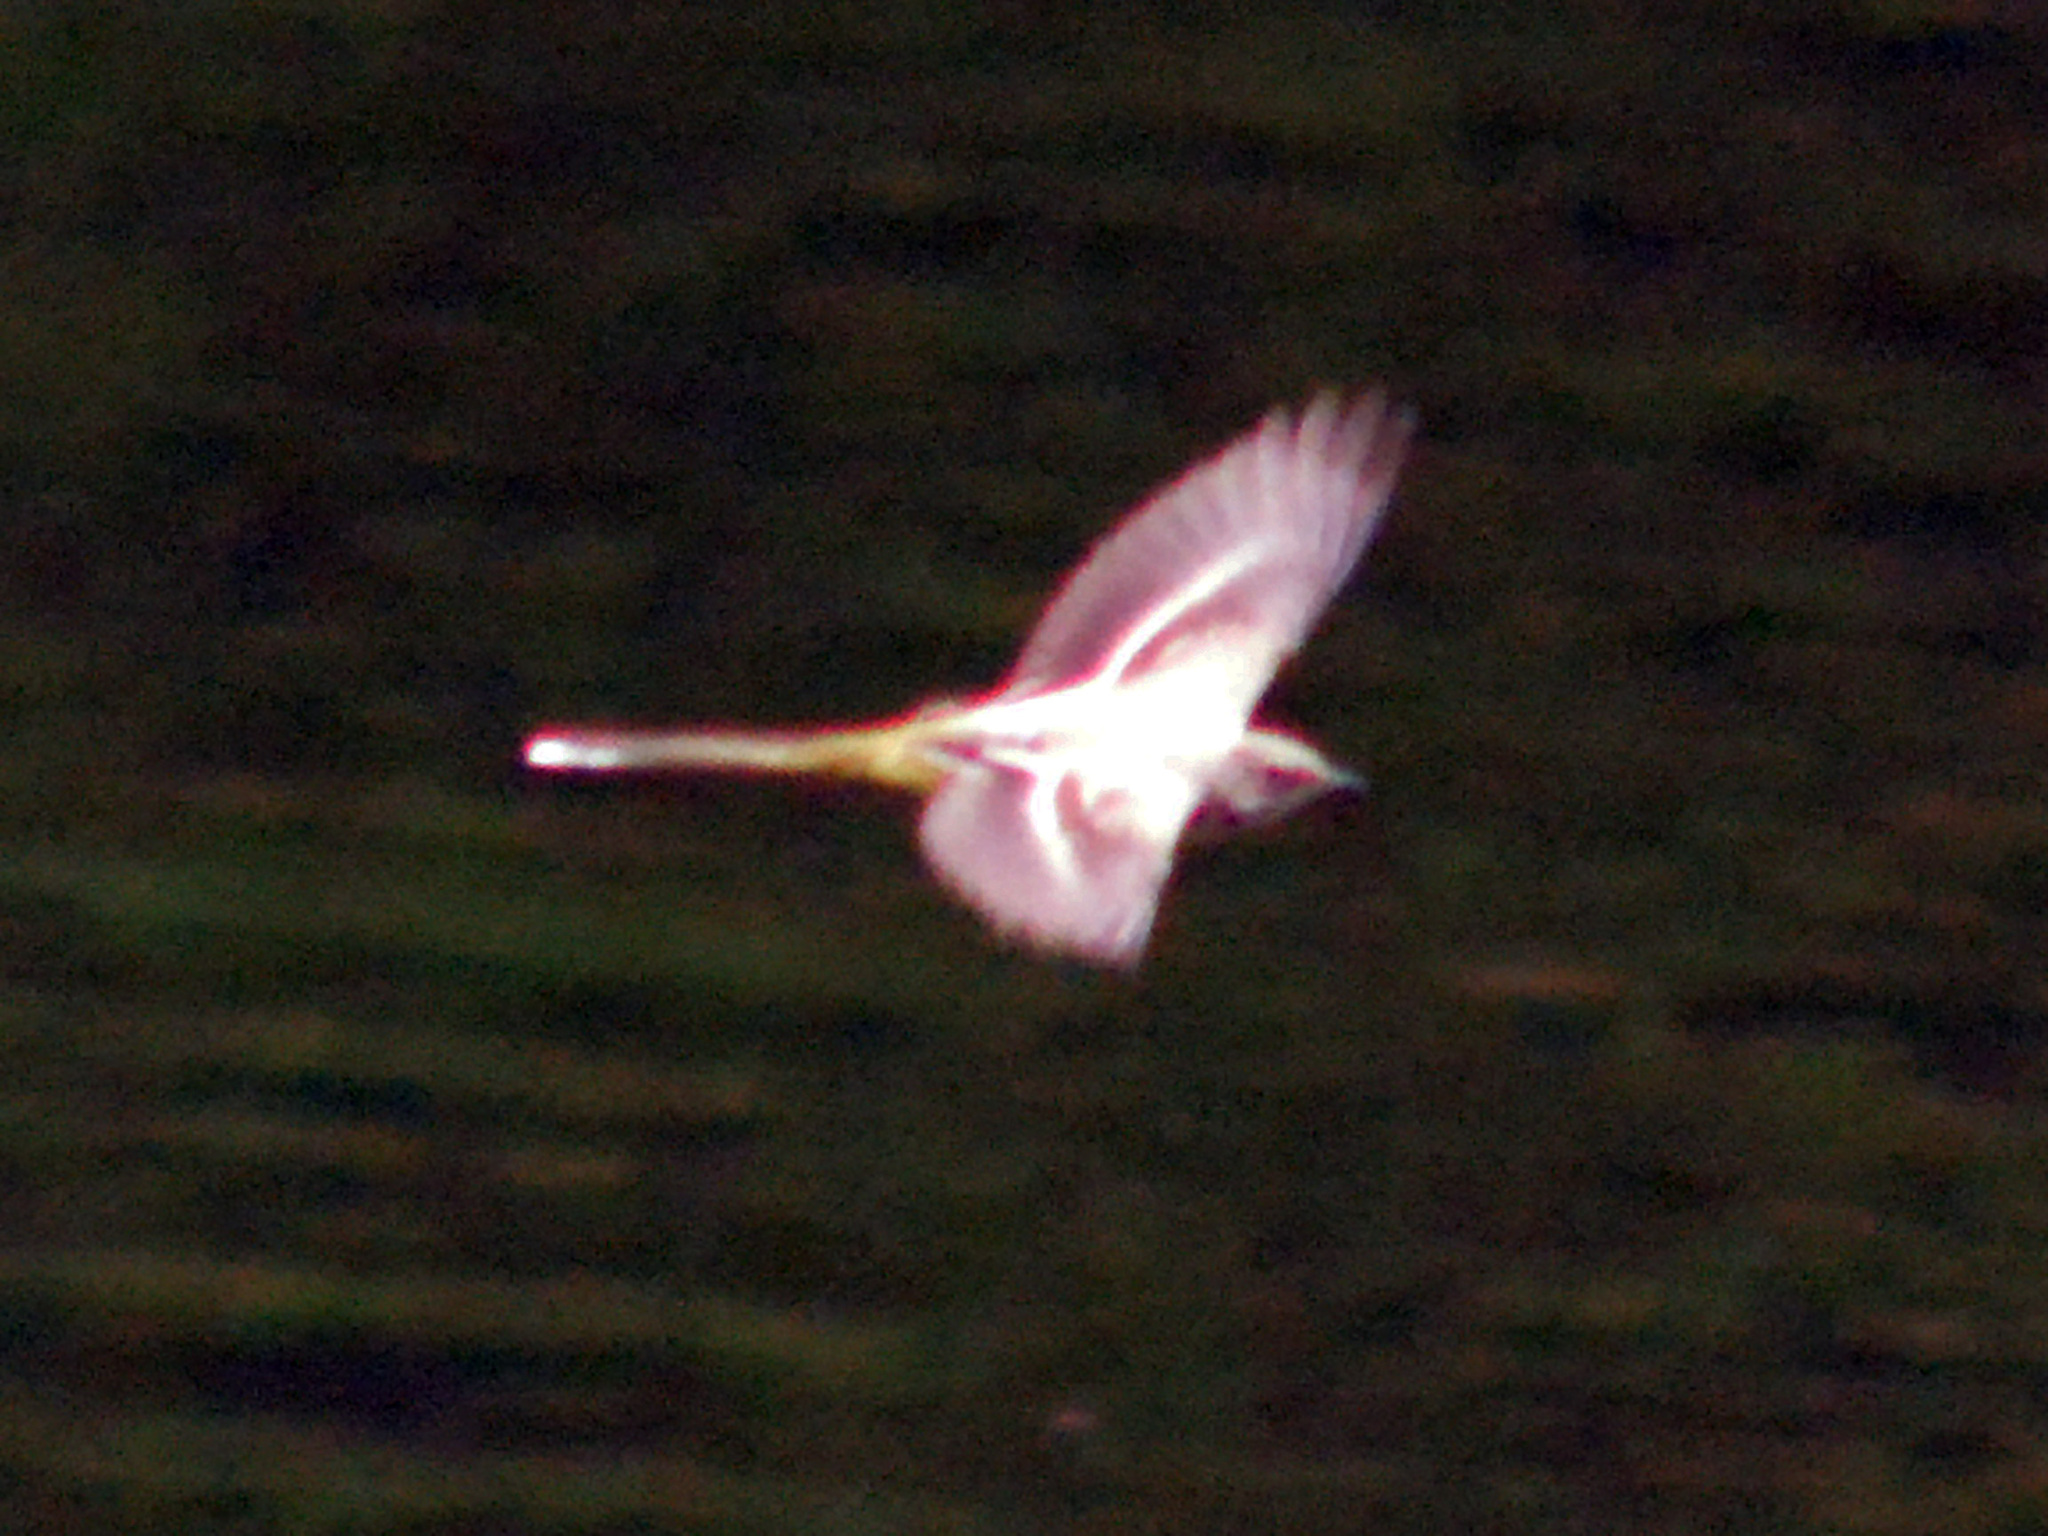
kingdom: Animalia
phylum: Chordata
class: Aves
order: Passeriformes
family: Motacillidae
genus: Motacilla
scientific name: Motacilla cinerea
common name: Grey wagtail
